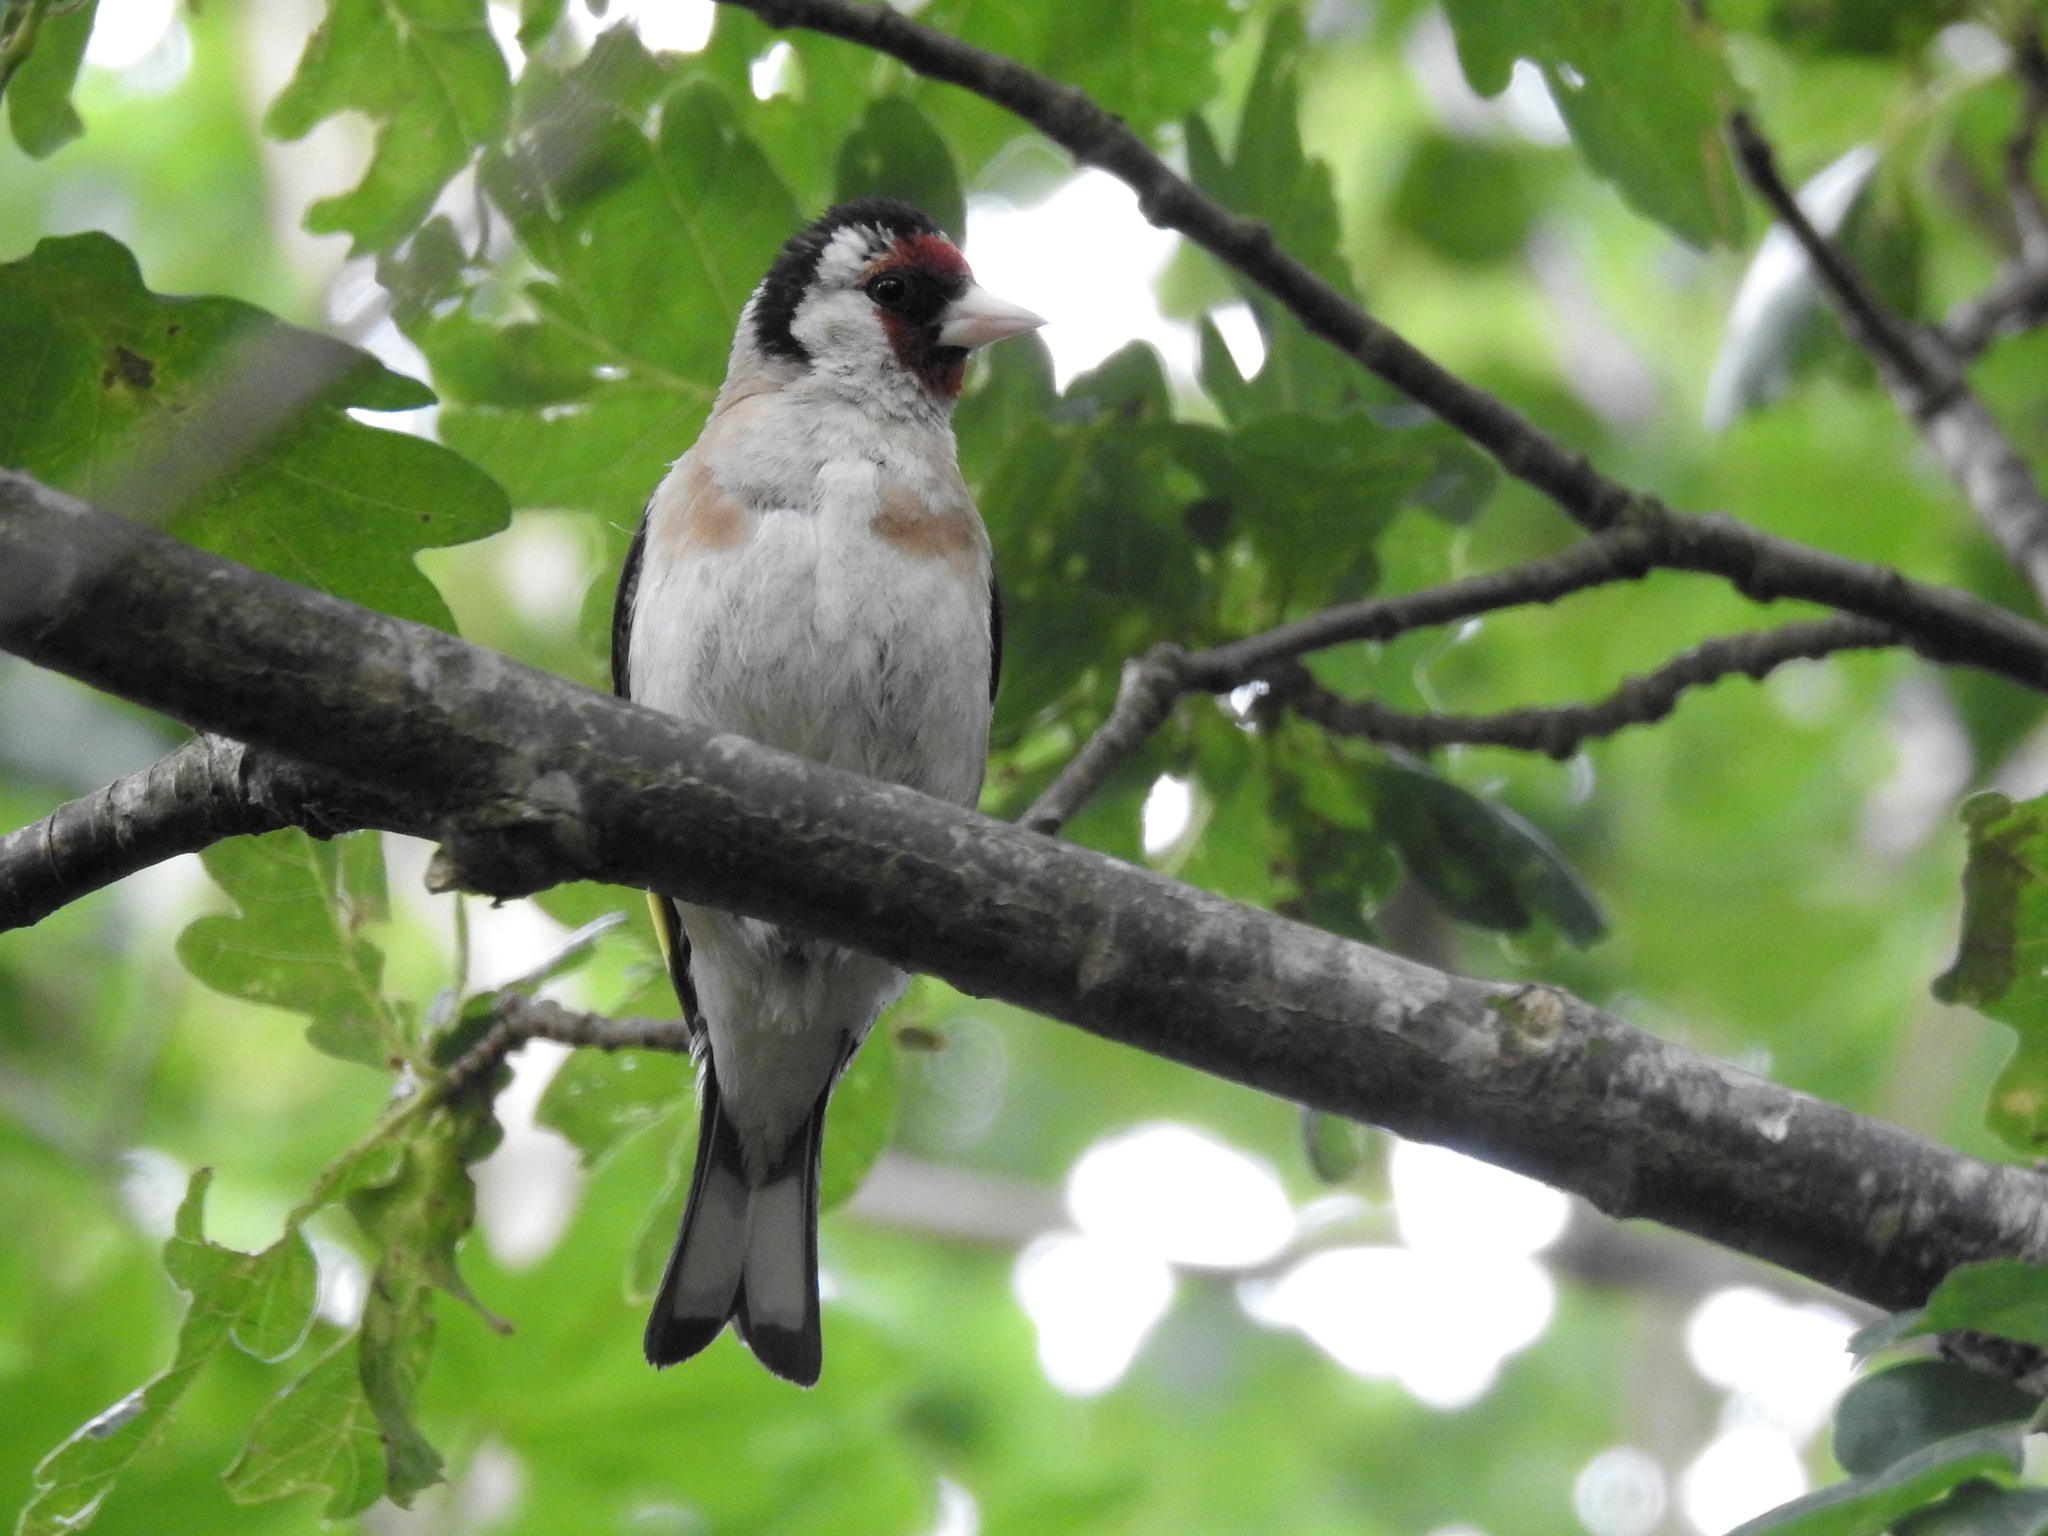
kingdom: Animalia
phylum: Chordata
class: Aves
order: Passeriformes
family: Fringillidae
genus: Carduelis
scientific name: Carduelis carduelis
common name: European goldfinch
